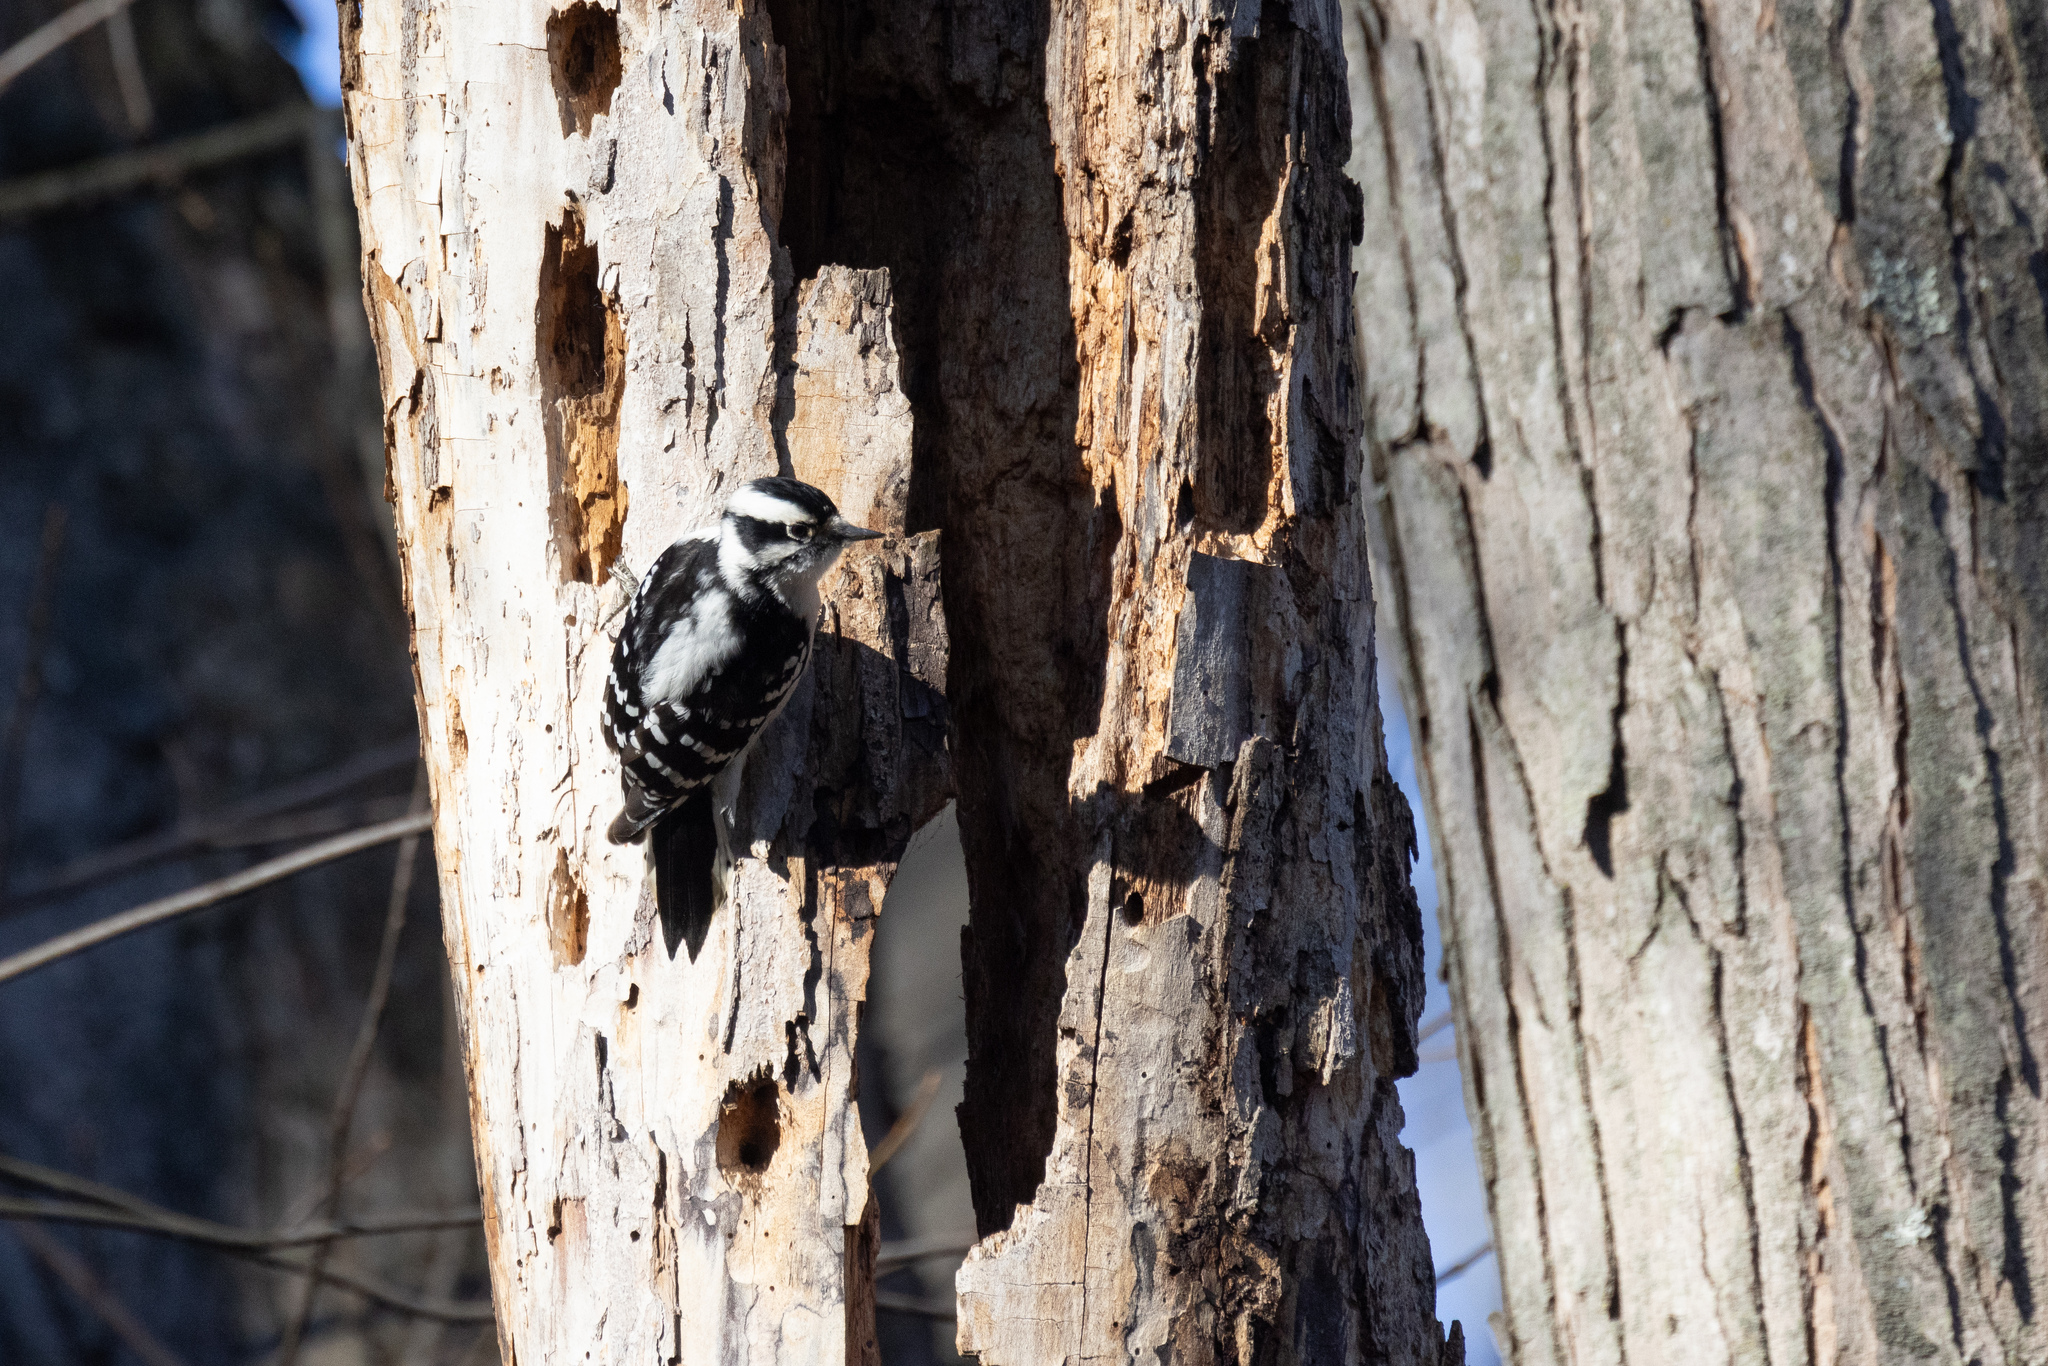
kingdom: Animalia
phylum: Chordata
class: Aves
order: Piciformes
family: Picidae
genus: Dryobates
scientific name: Dryobates pubescens
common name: Downy woodpecker
